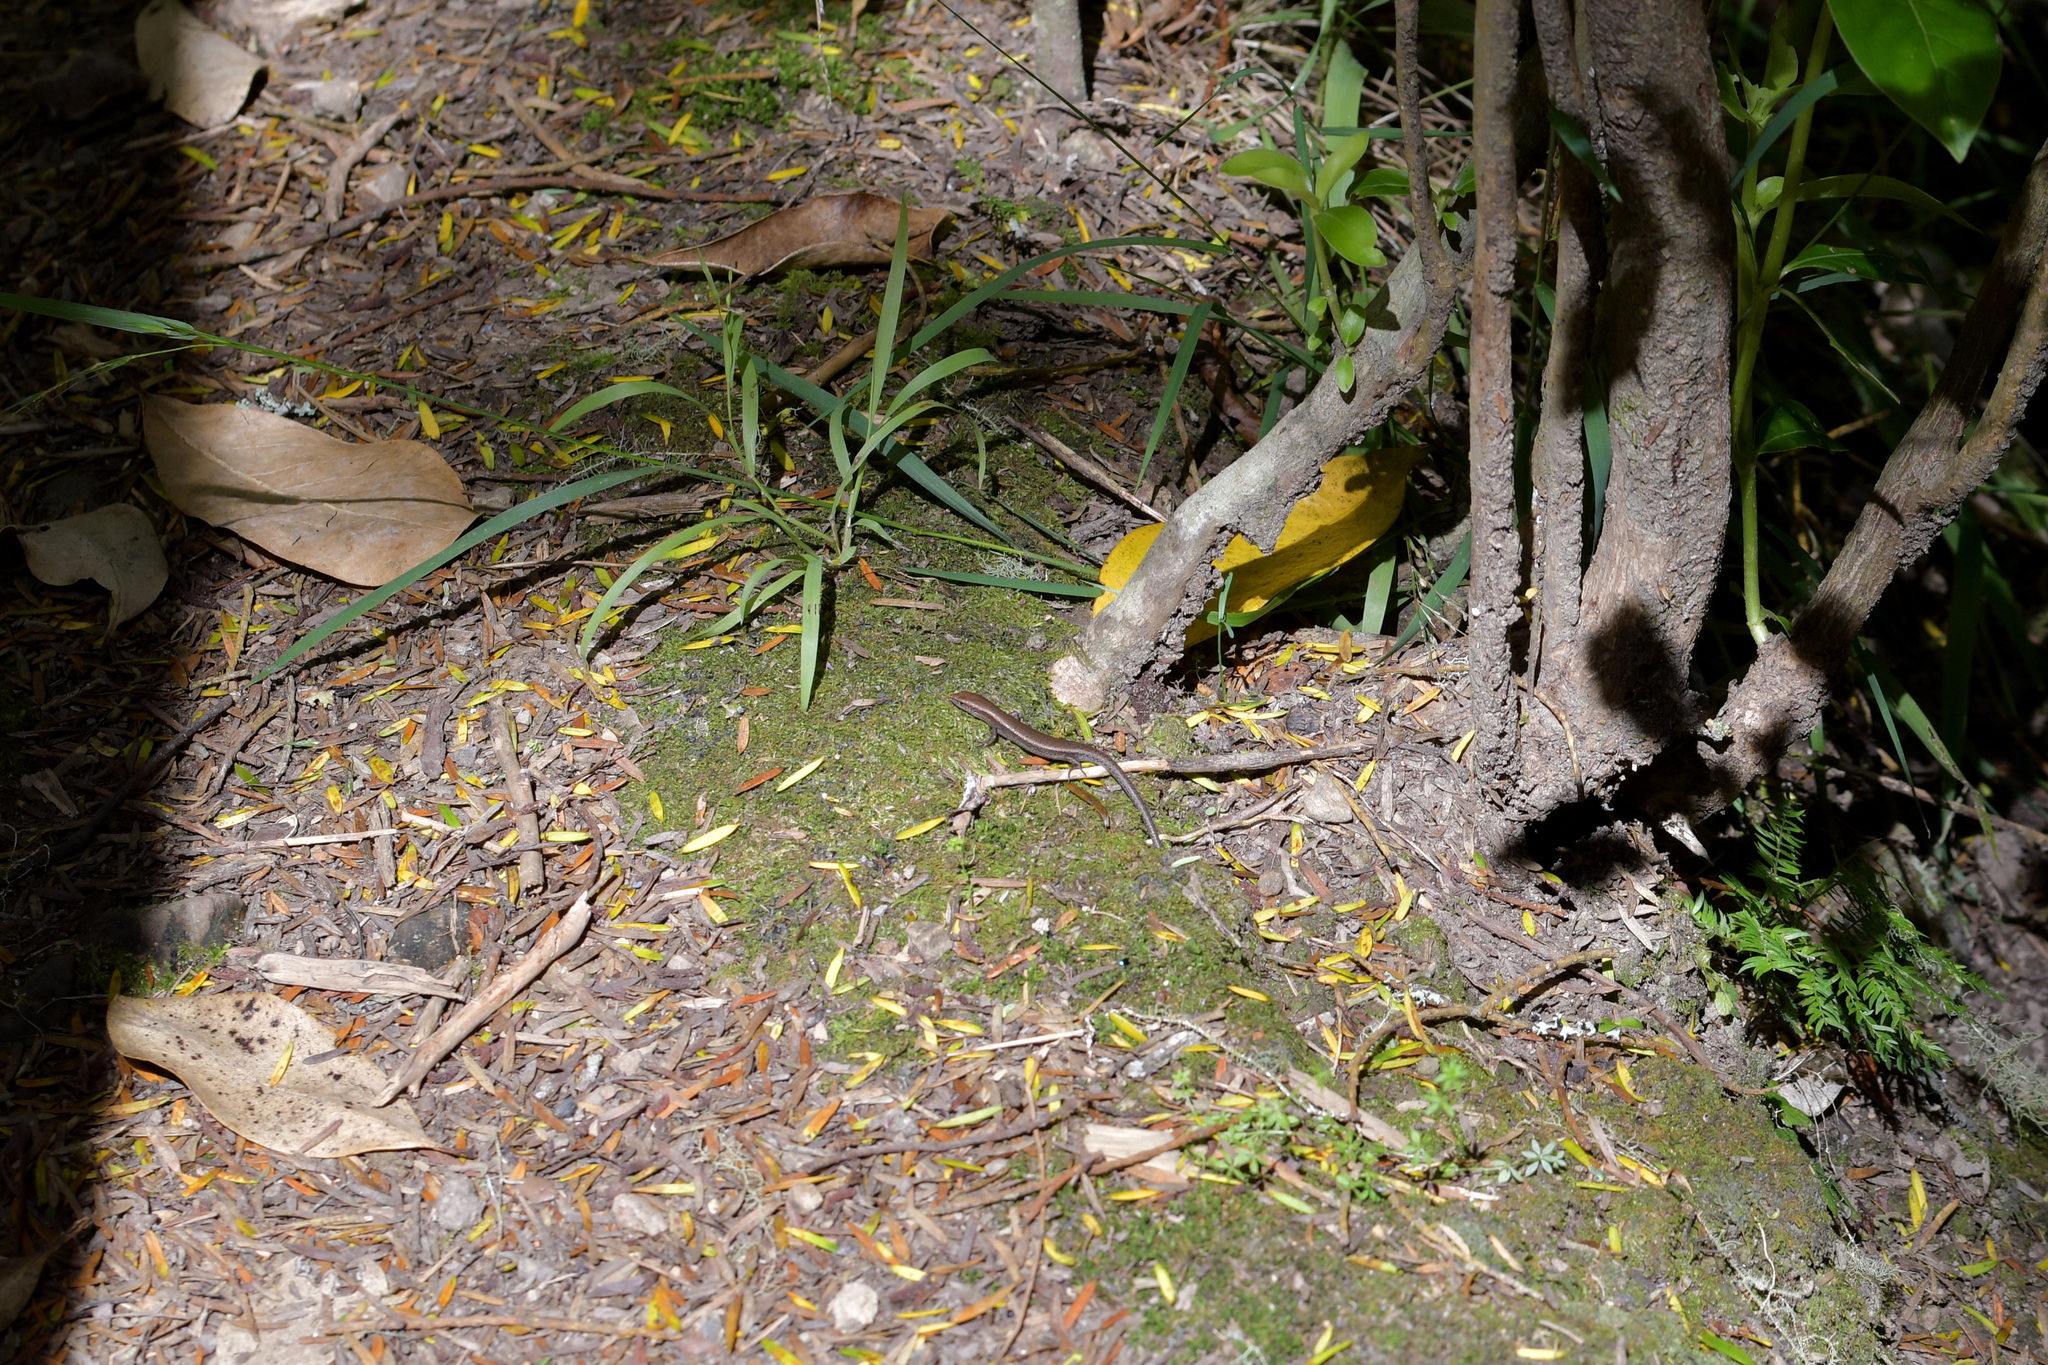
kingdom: Animalia
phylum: Chordata
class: Squamata
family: Scincidae
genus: Lampropholis
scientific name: Lampropholis delicata
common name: Plague skink
